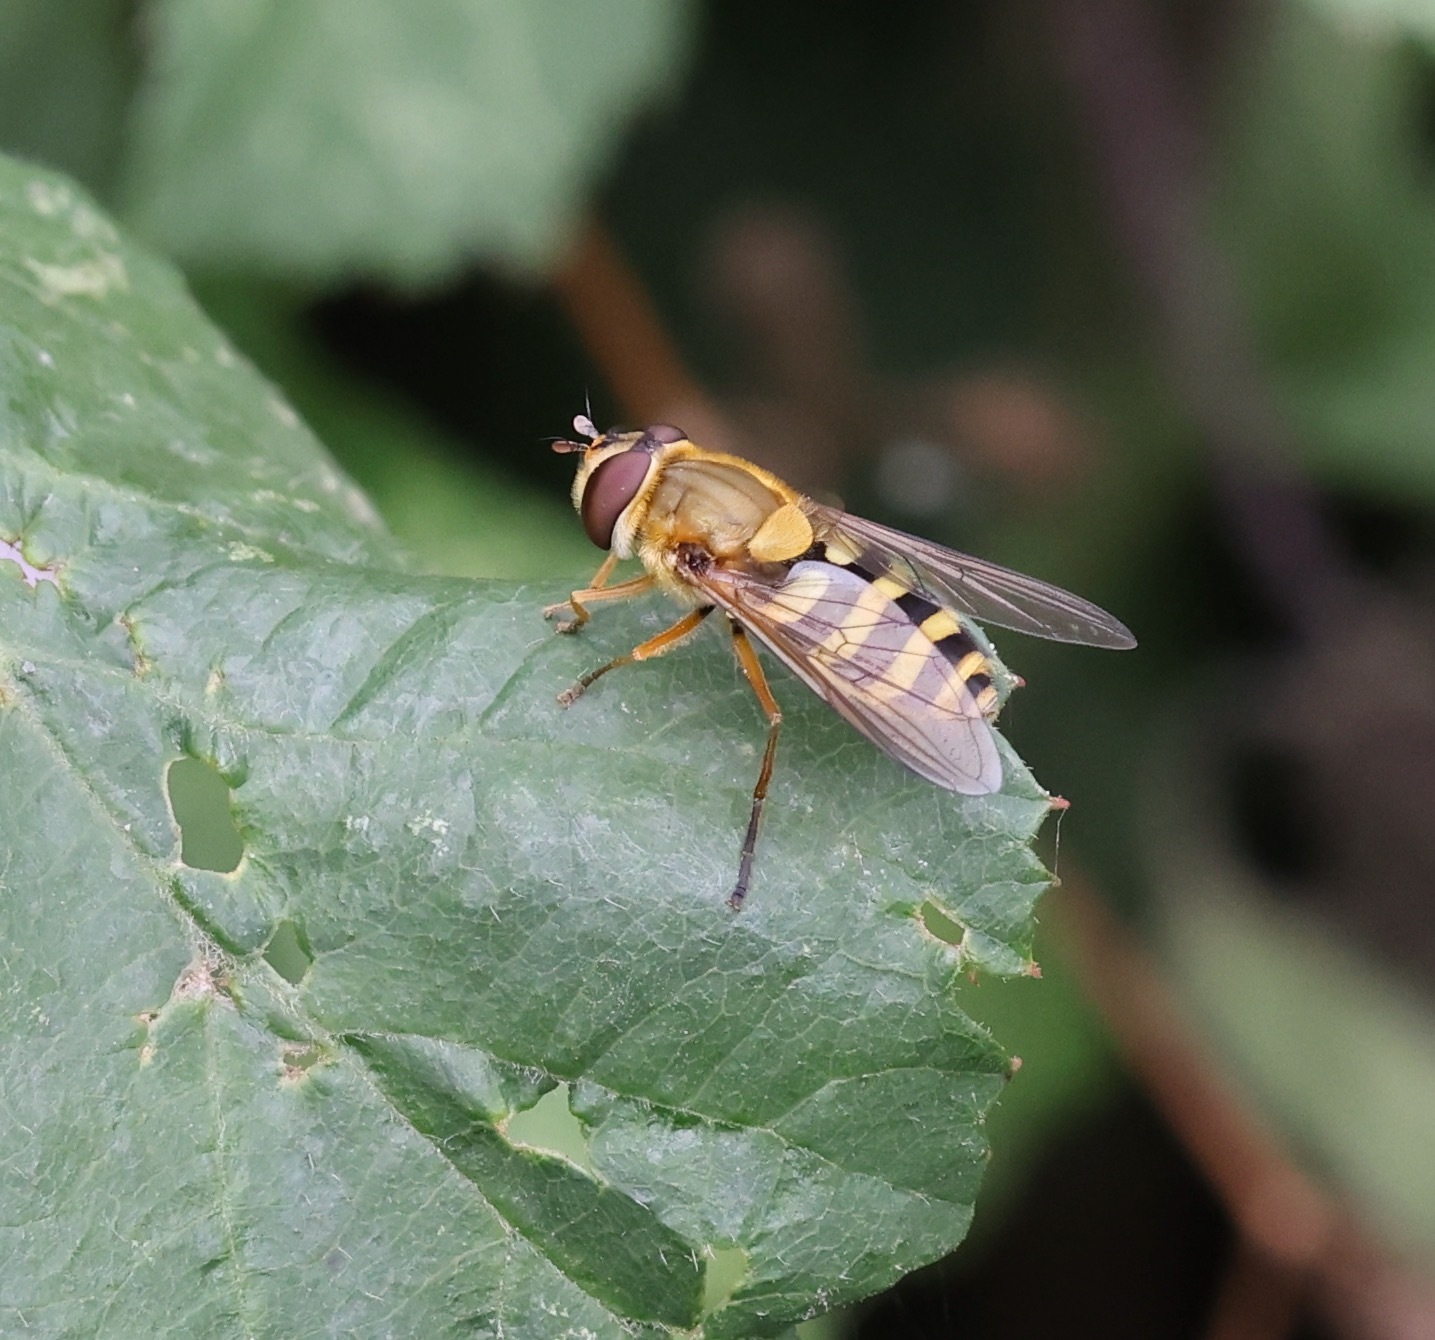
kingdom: Animalia
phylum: Arthropoda
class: Insecta
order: Diptera
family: Syrphidae
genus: Syrphus
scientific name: Syrphus ribesii
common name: Common flower fly
